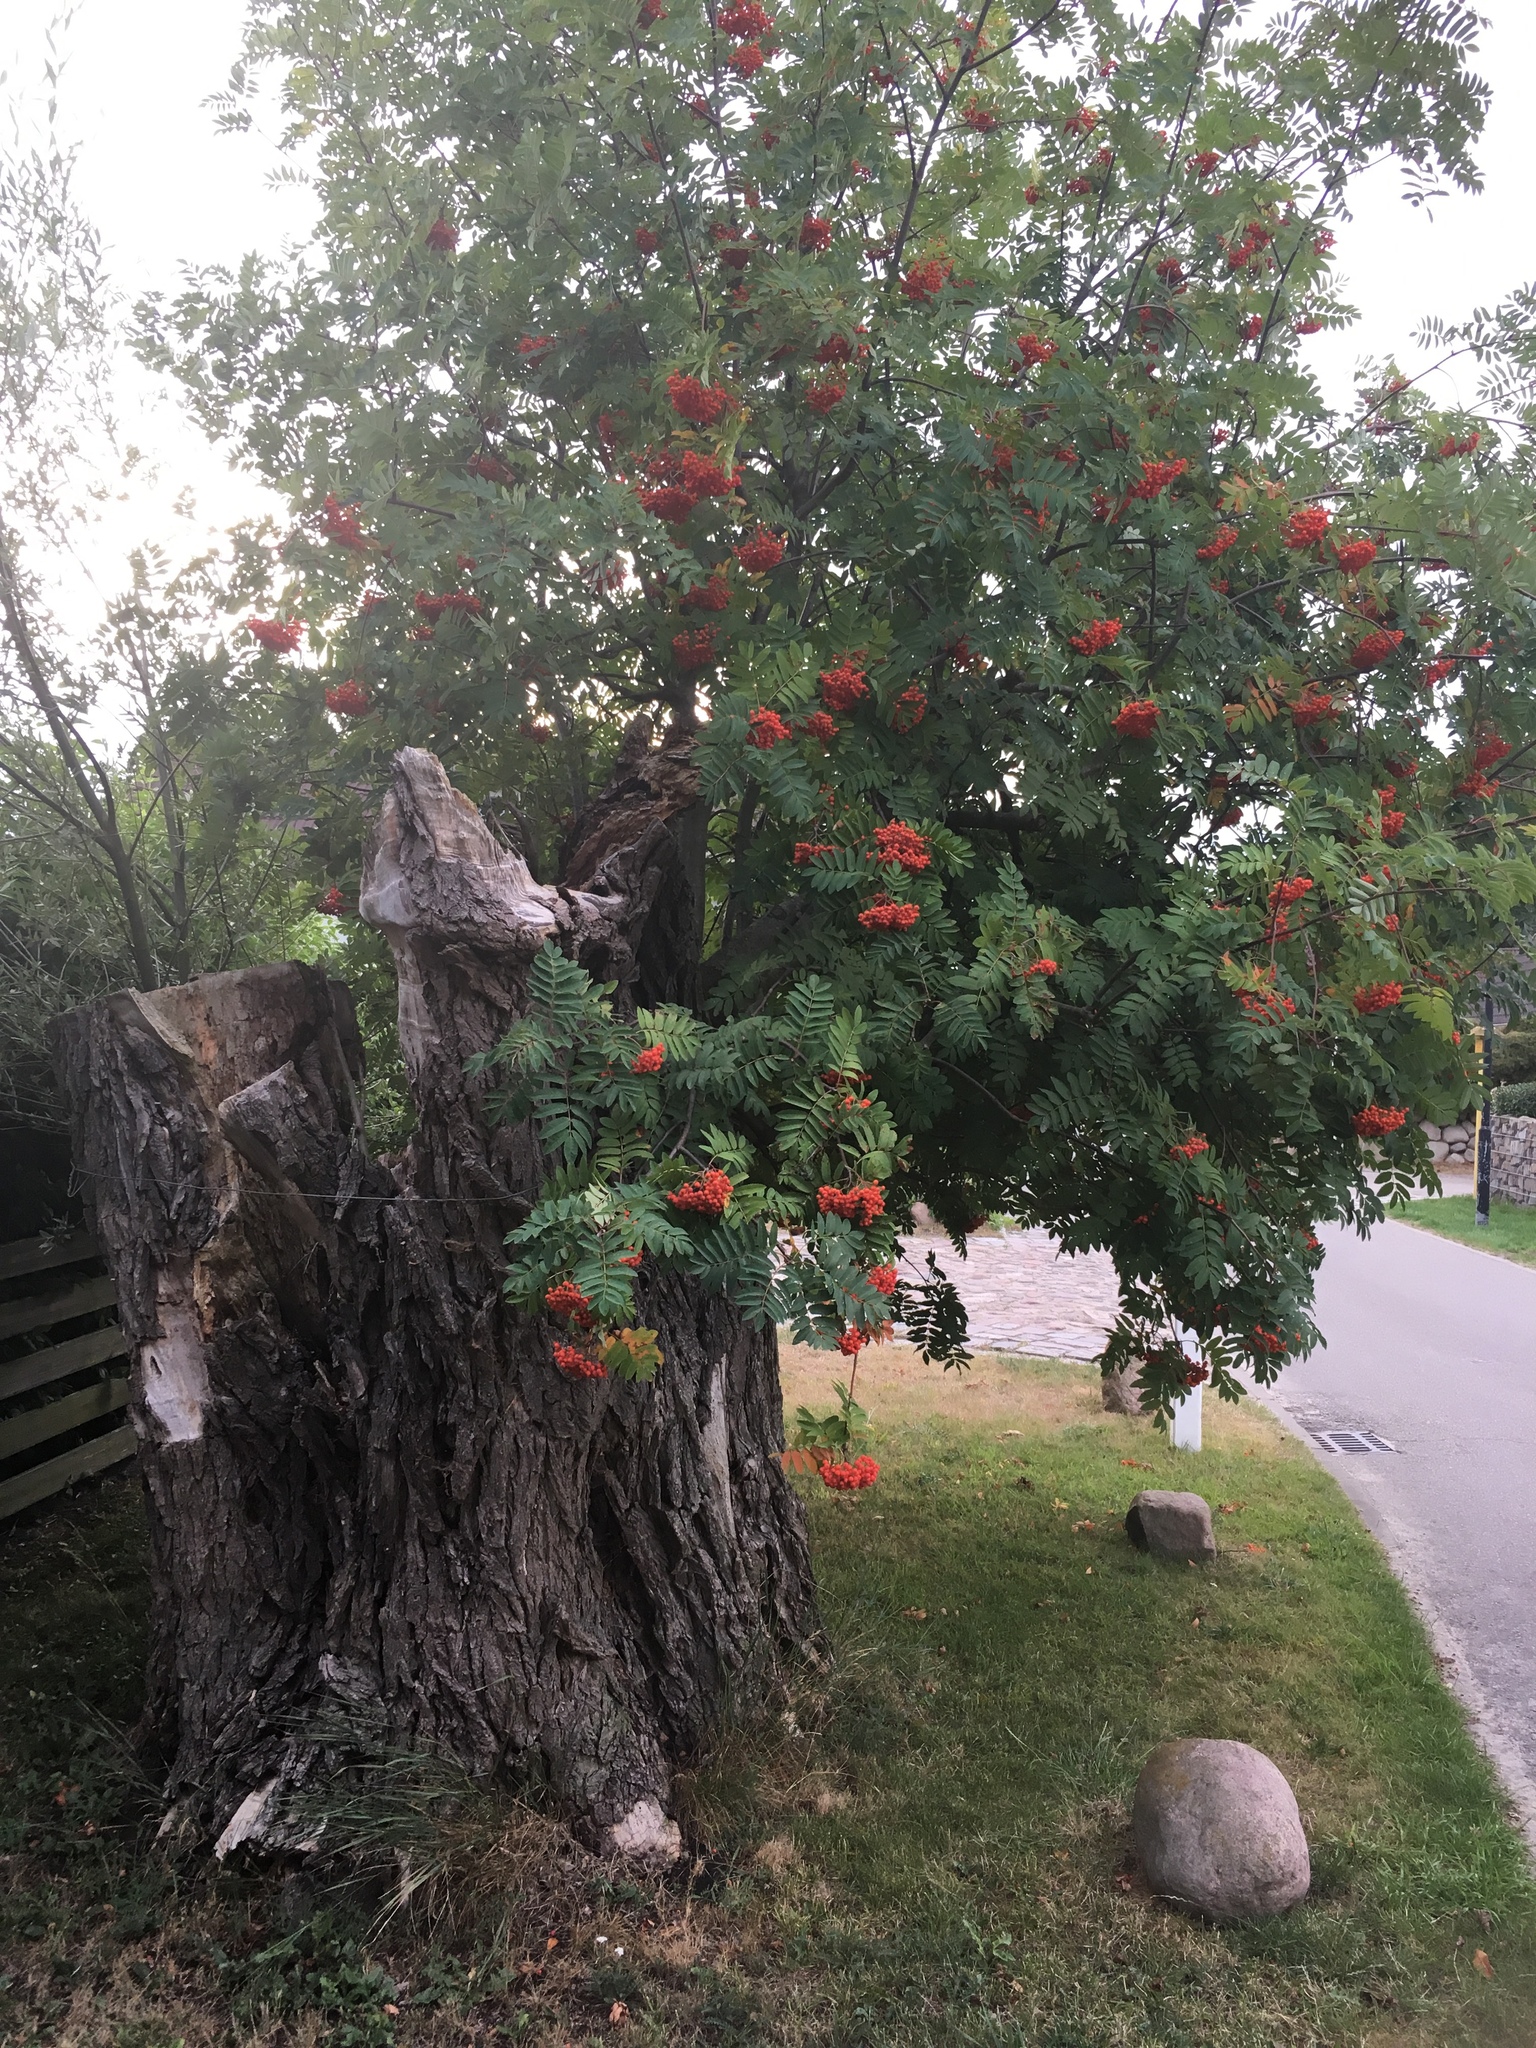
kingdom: Plantae
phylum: Tracheophyta
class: Magnoliopsida
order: Rosales
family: Rosaceae
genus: Sorbus
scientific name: Sorbus aucuparia
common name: Rowan
